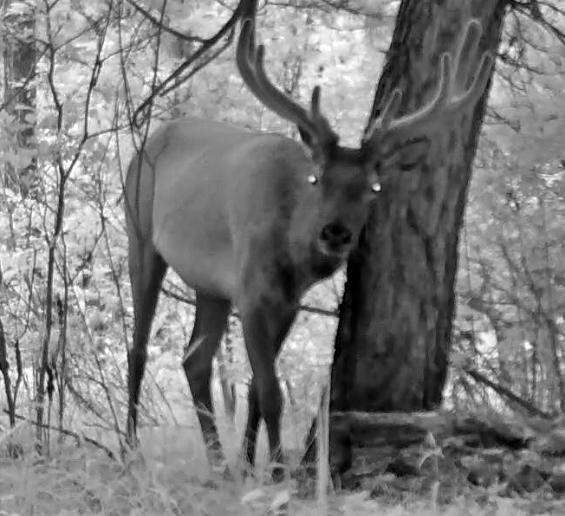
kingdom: Animalia
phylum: Chordata
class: Mammalia
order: Artiodactyla
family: Cervidae
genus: Cervus
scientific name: Cervus elaphus
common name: Red deer
